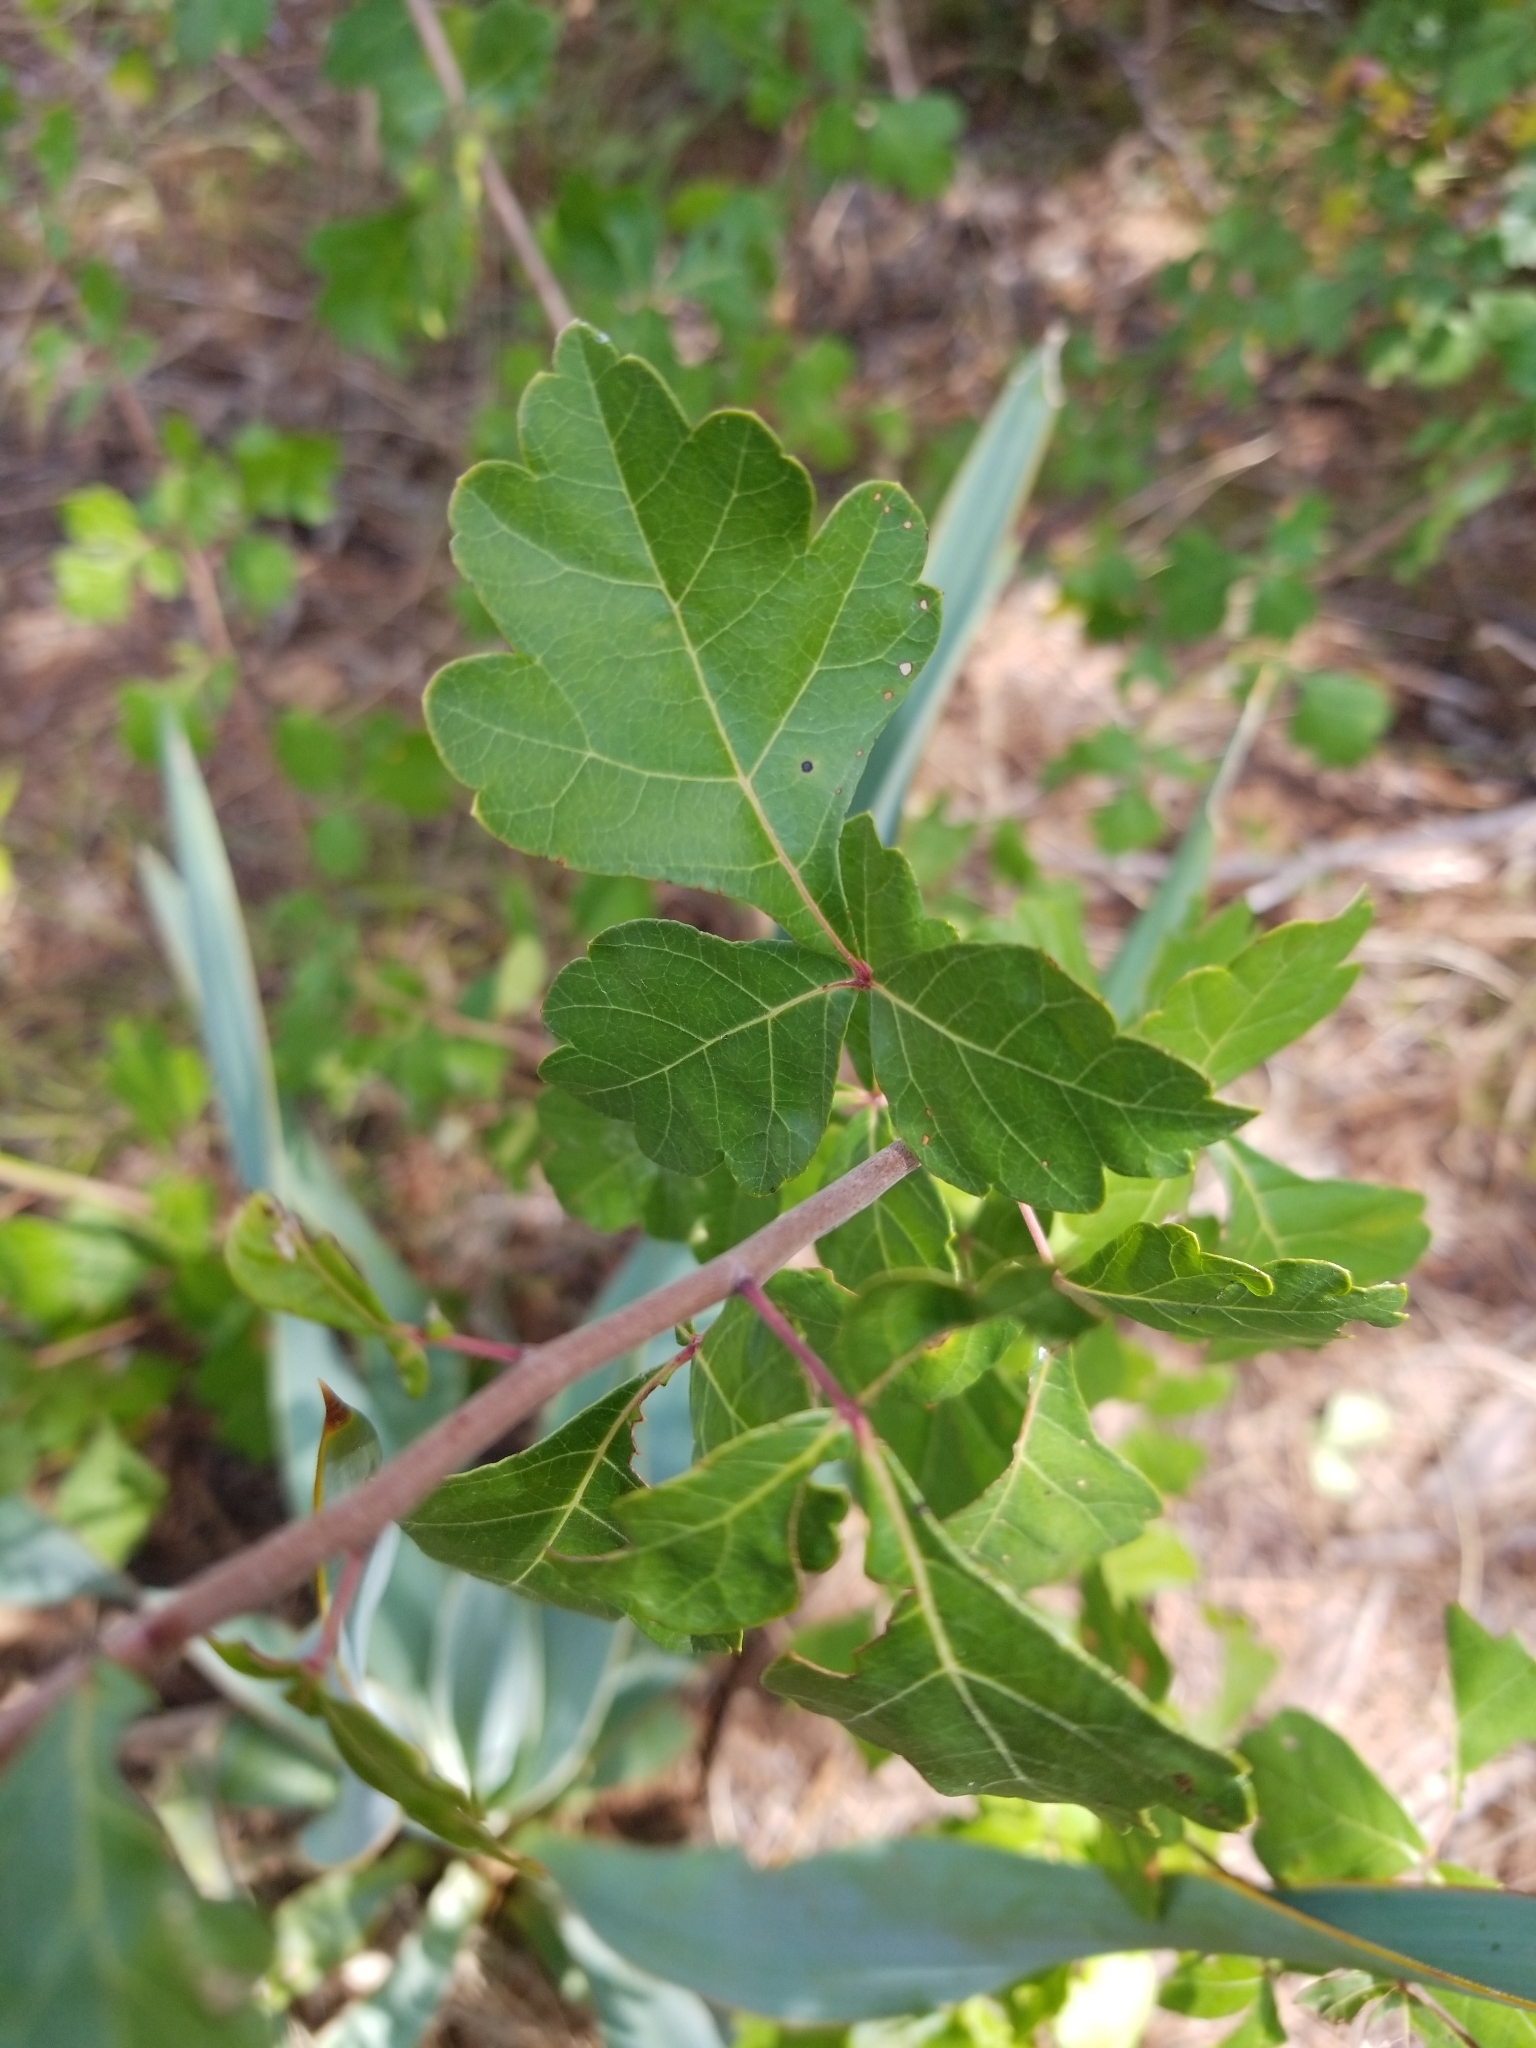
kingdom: Plantae
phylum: Tracheophyta
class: Magnoliopsida
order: Sapindales
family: Anacardiaceae
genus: Rhus
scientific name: Rhus aromatica
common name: Aromatic sumac
